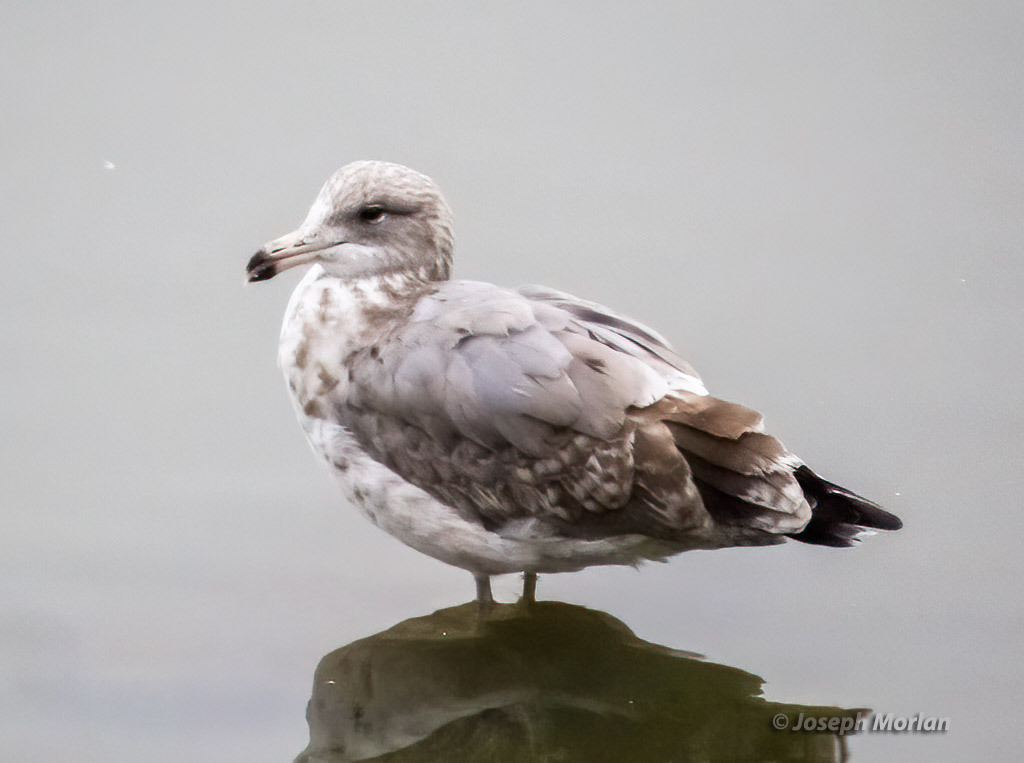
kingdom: Animalia
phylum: Chordata
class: Aves
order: Charadriiformes
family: Laridae
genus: Larus
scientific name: Larus californicus
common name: California gull
